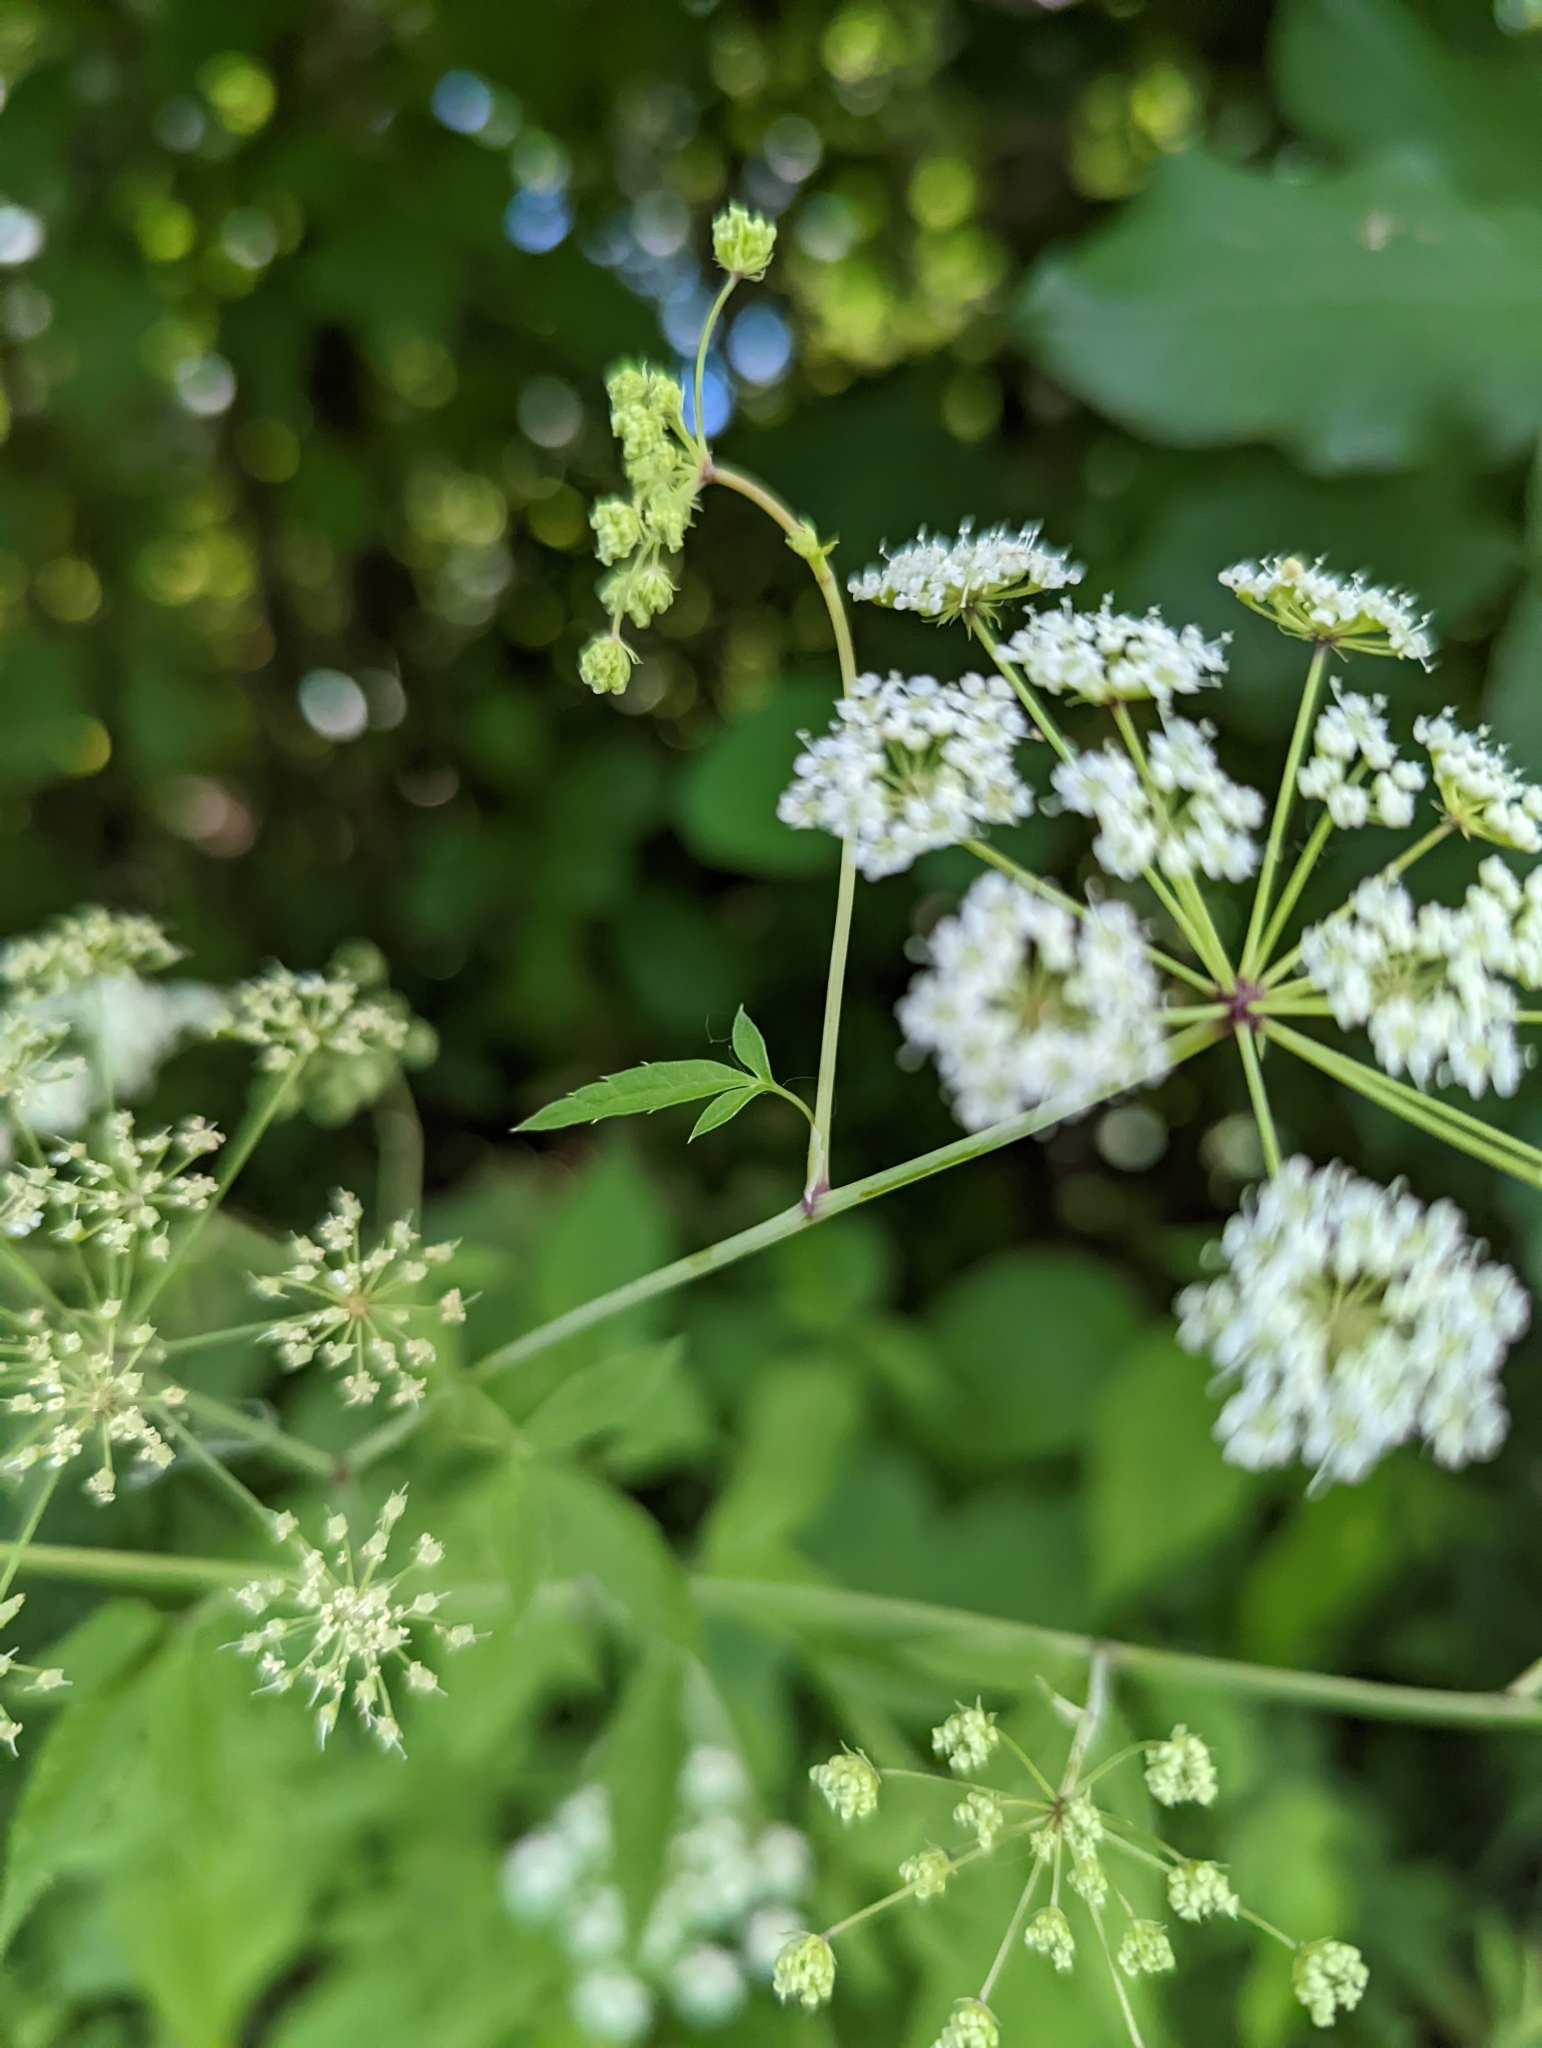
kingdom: Plantae
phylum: Tracheophyta
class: Magnoliopsida
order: Apiales
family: Apiaceae
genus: Cicuta
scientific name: Cicuta maculata
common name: Spotted cowbane
